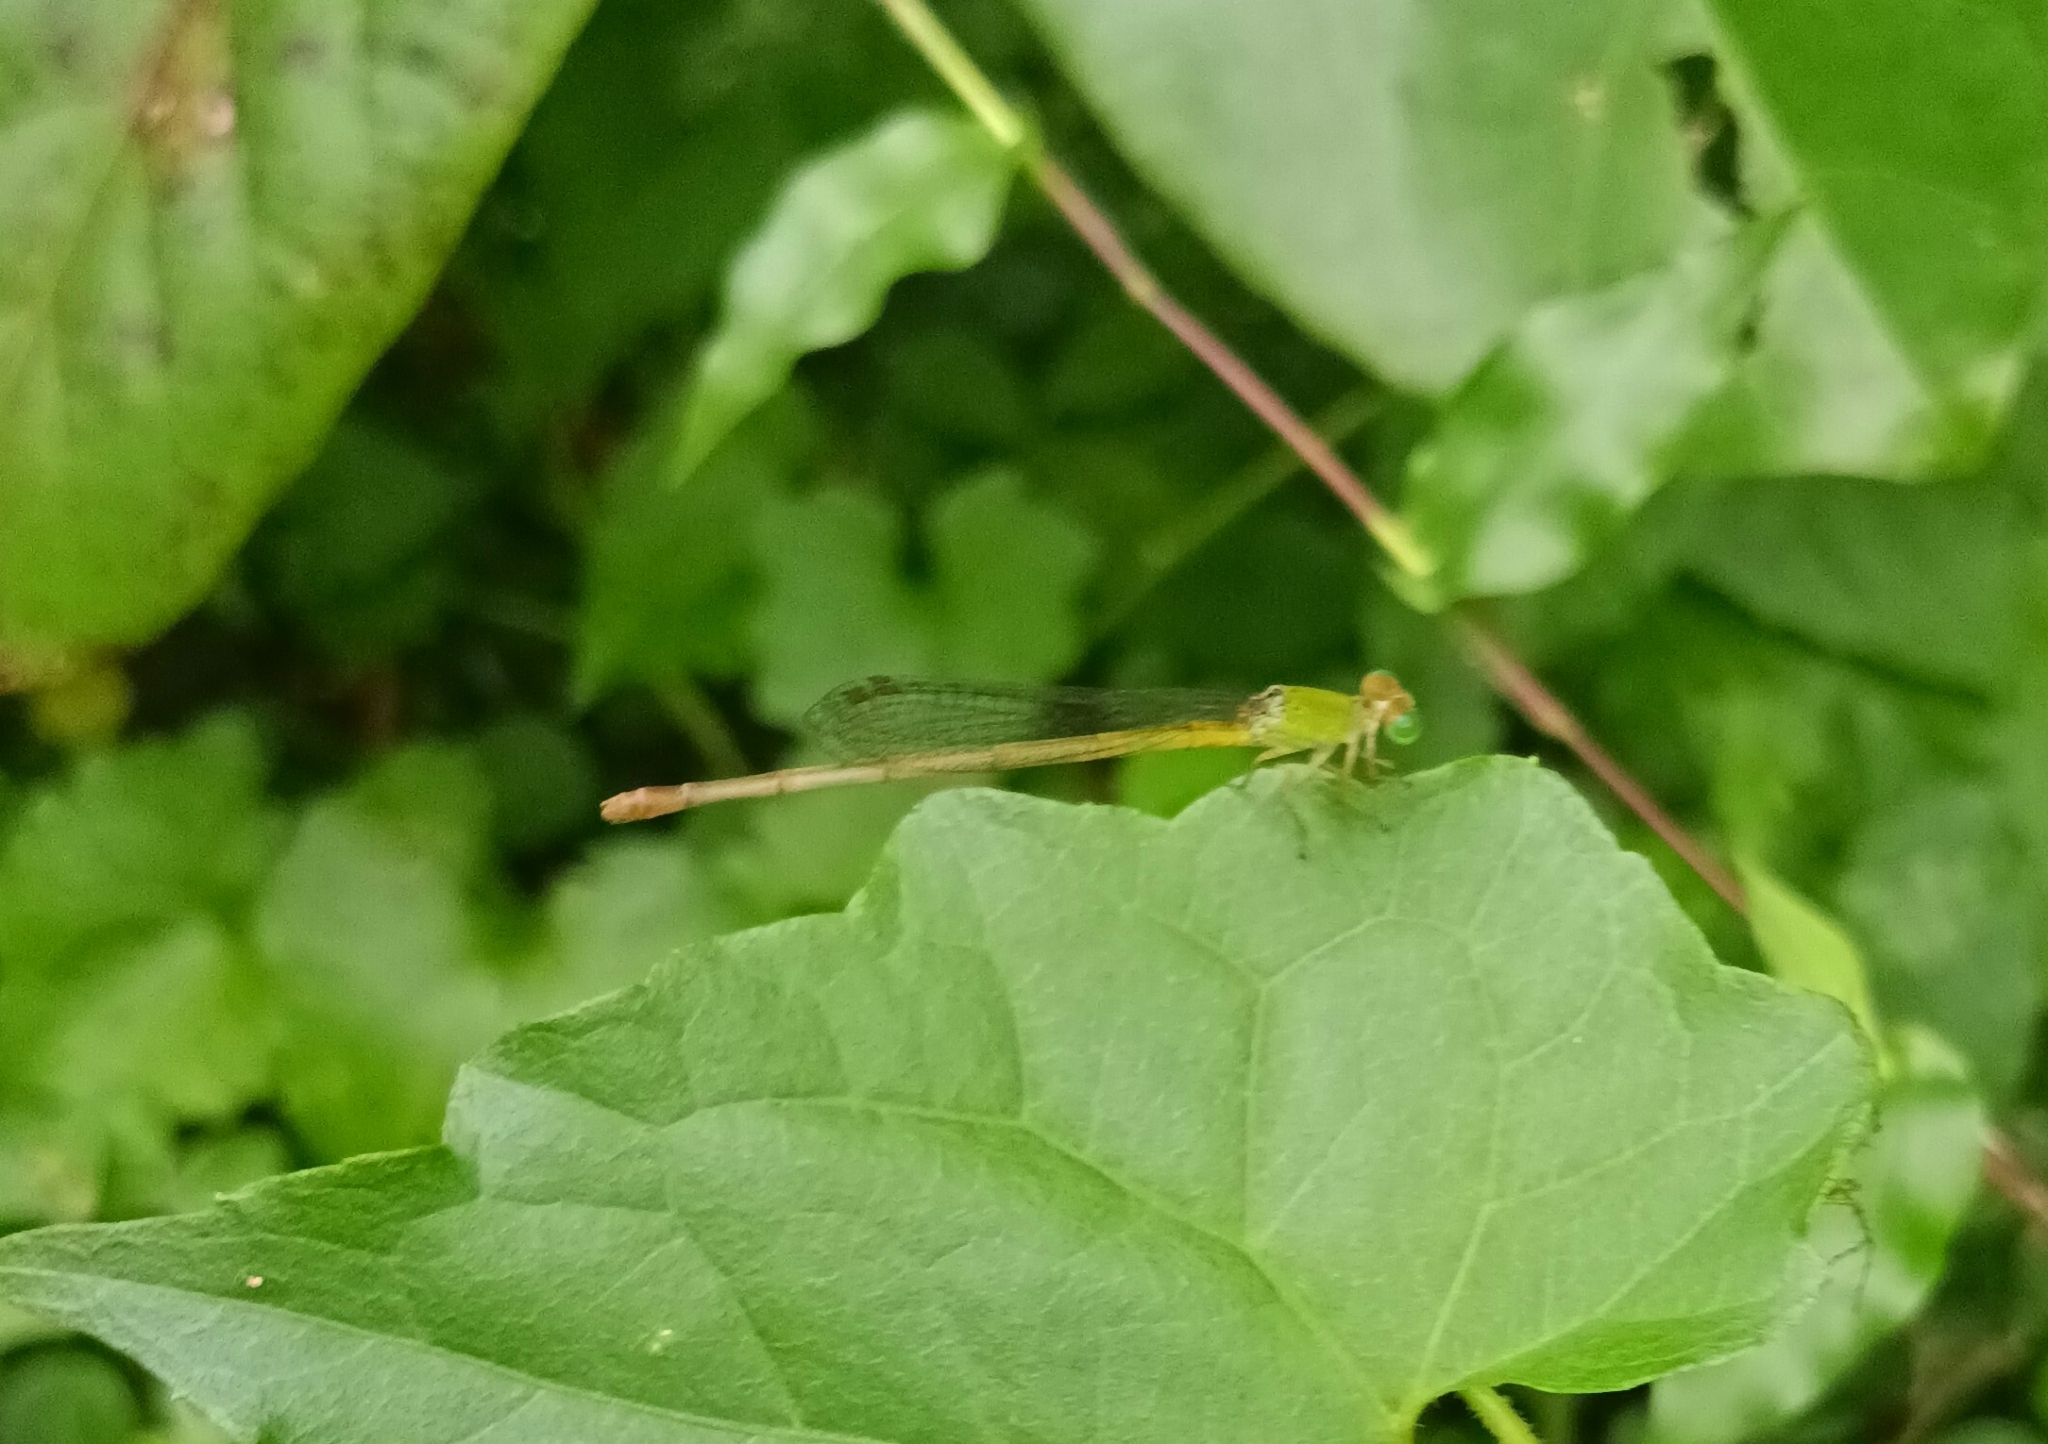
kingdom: Animalia
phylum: Arthropoda
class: Insecta
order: Odonata
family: Coenagrionidae
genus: Ceriagrion
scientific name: Ceriagrion coromandelianum
